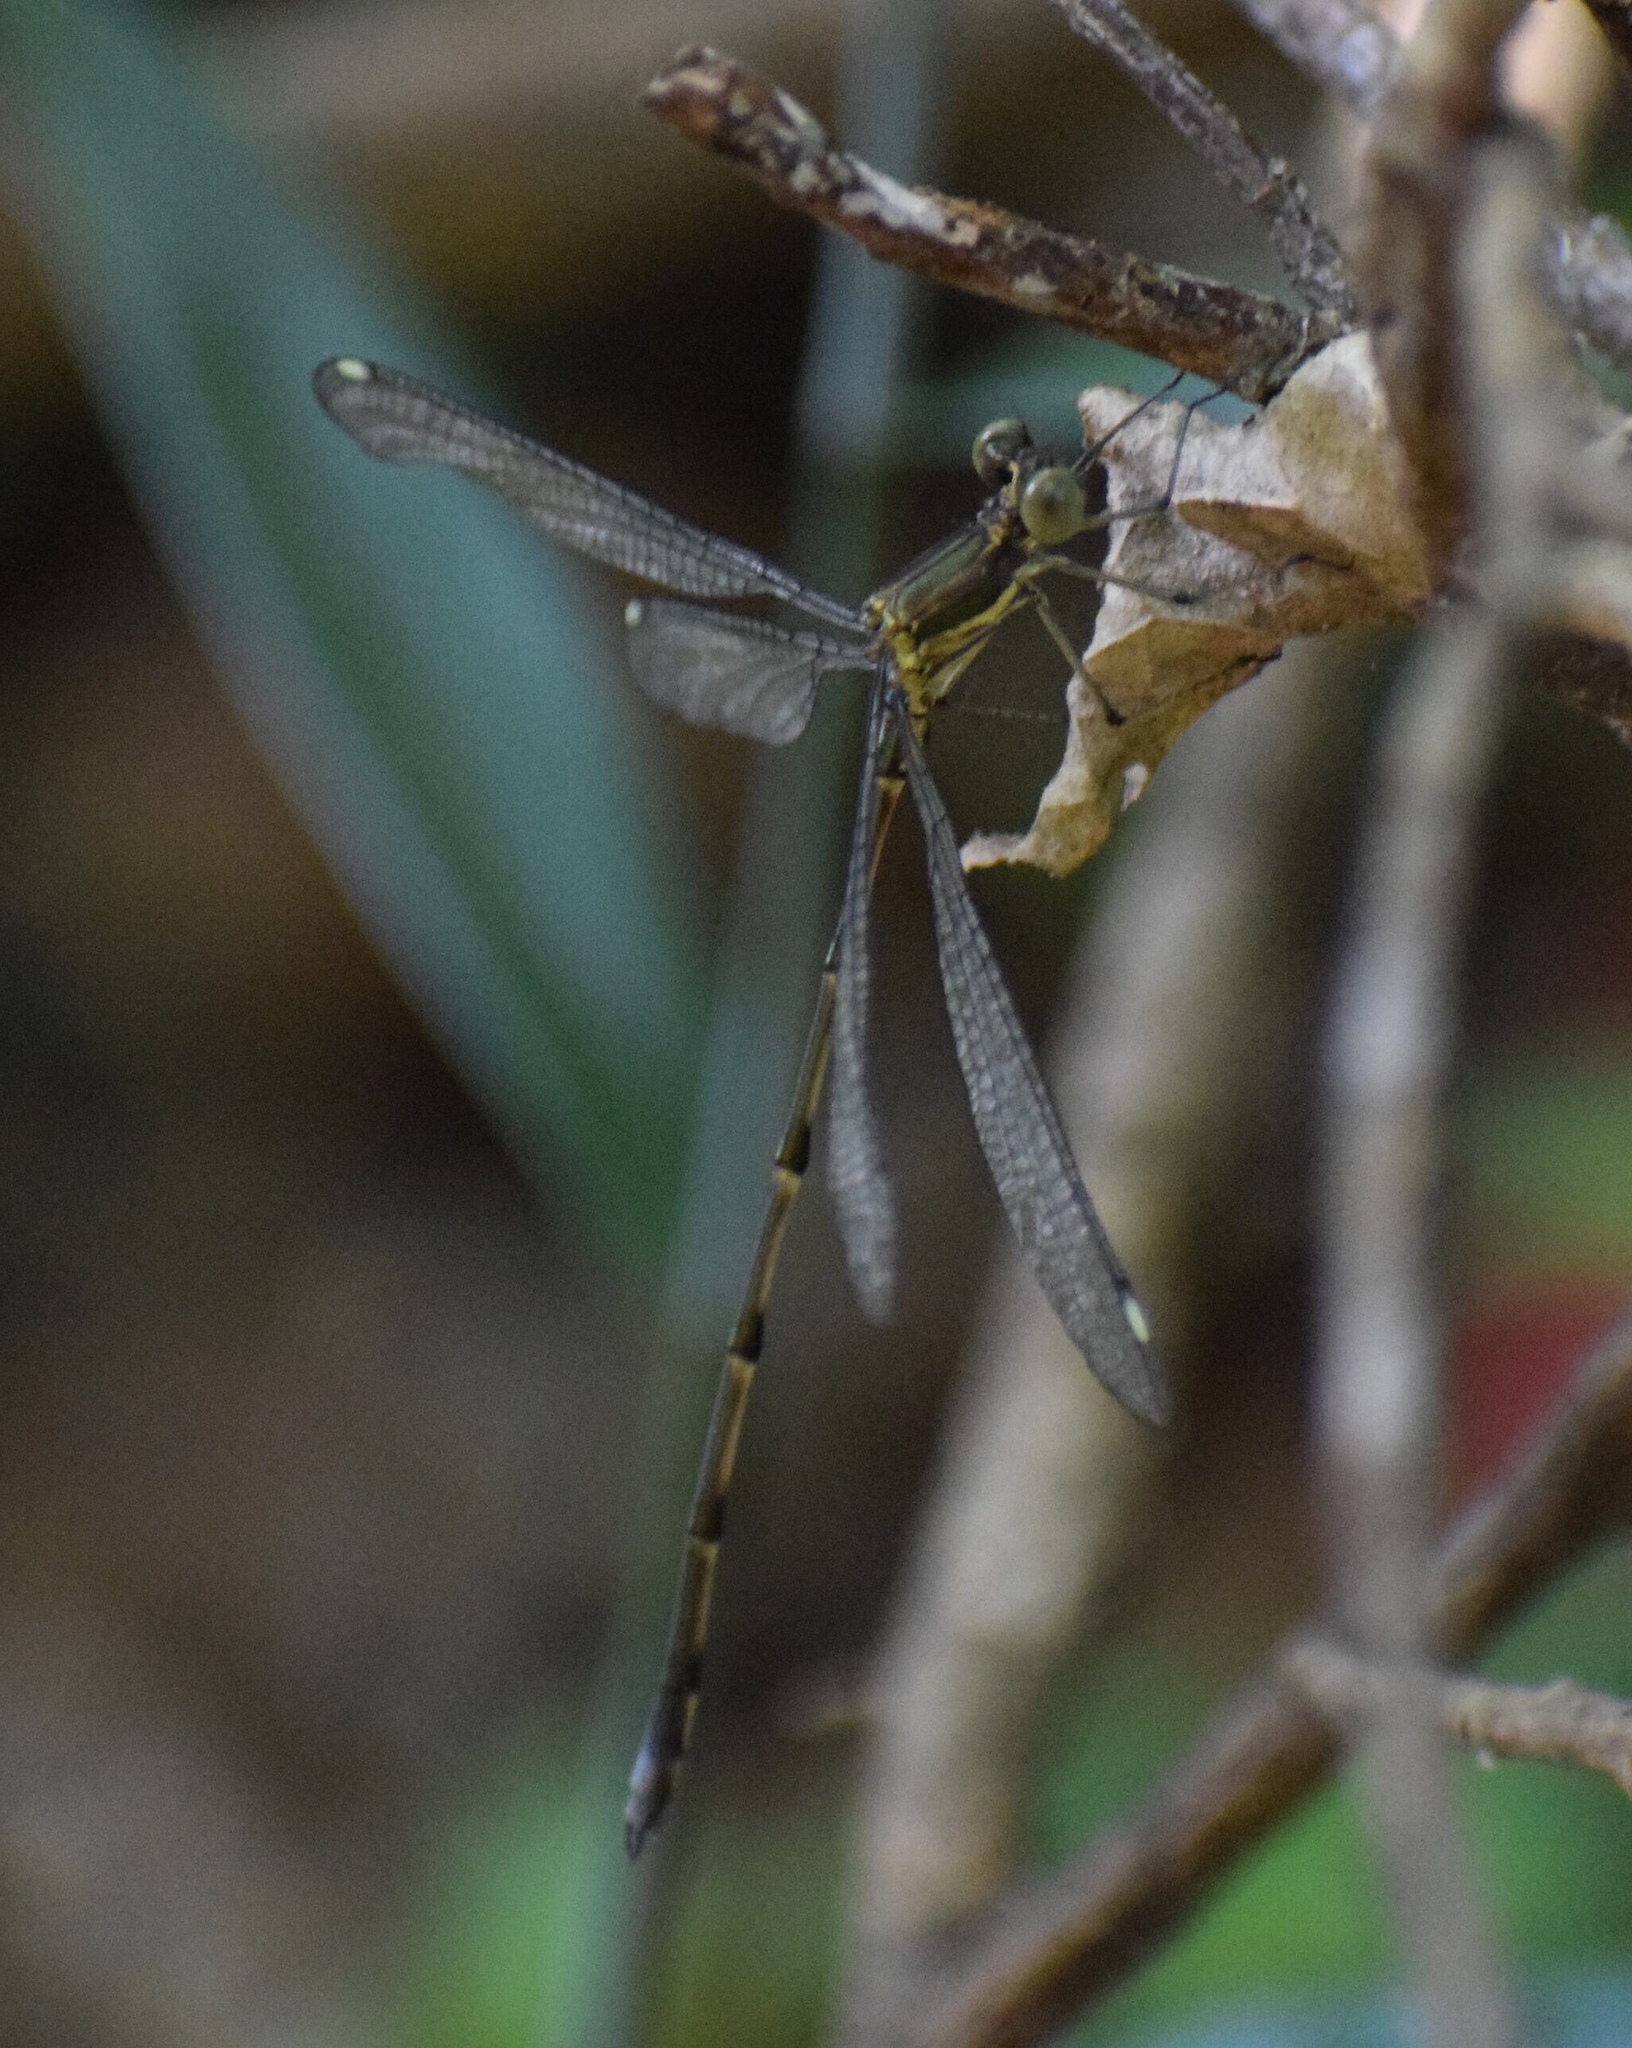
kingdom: Animalia
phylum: Arthropoda
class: Insecta
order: Odonata
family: Synlestidae
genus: Chlorolestes
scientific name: Chlorolestes tessellatus
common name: Forest malachite
